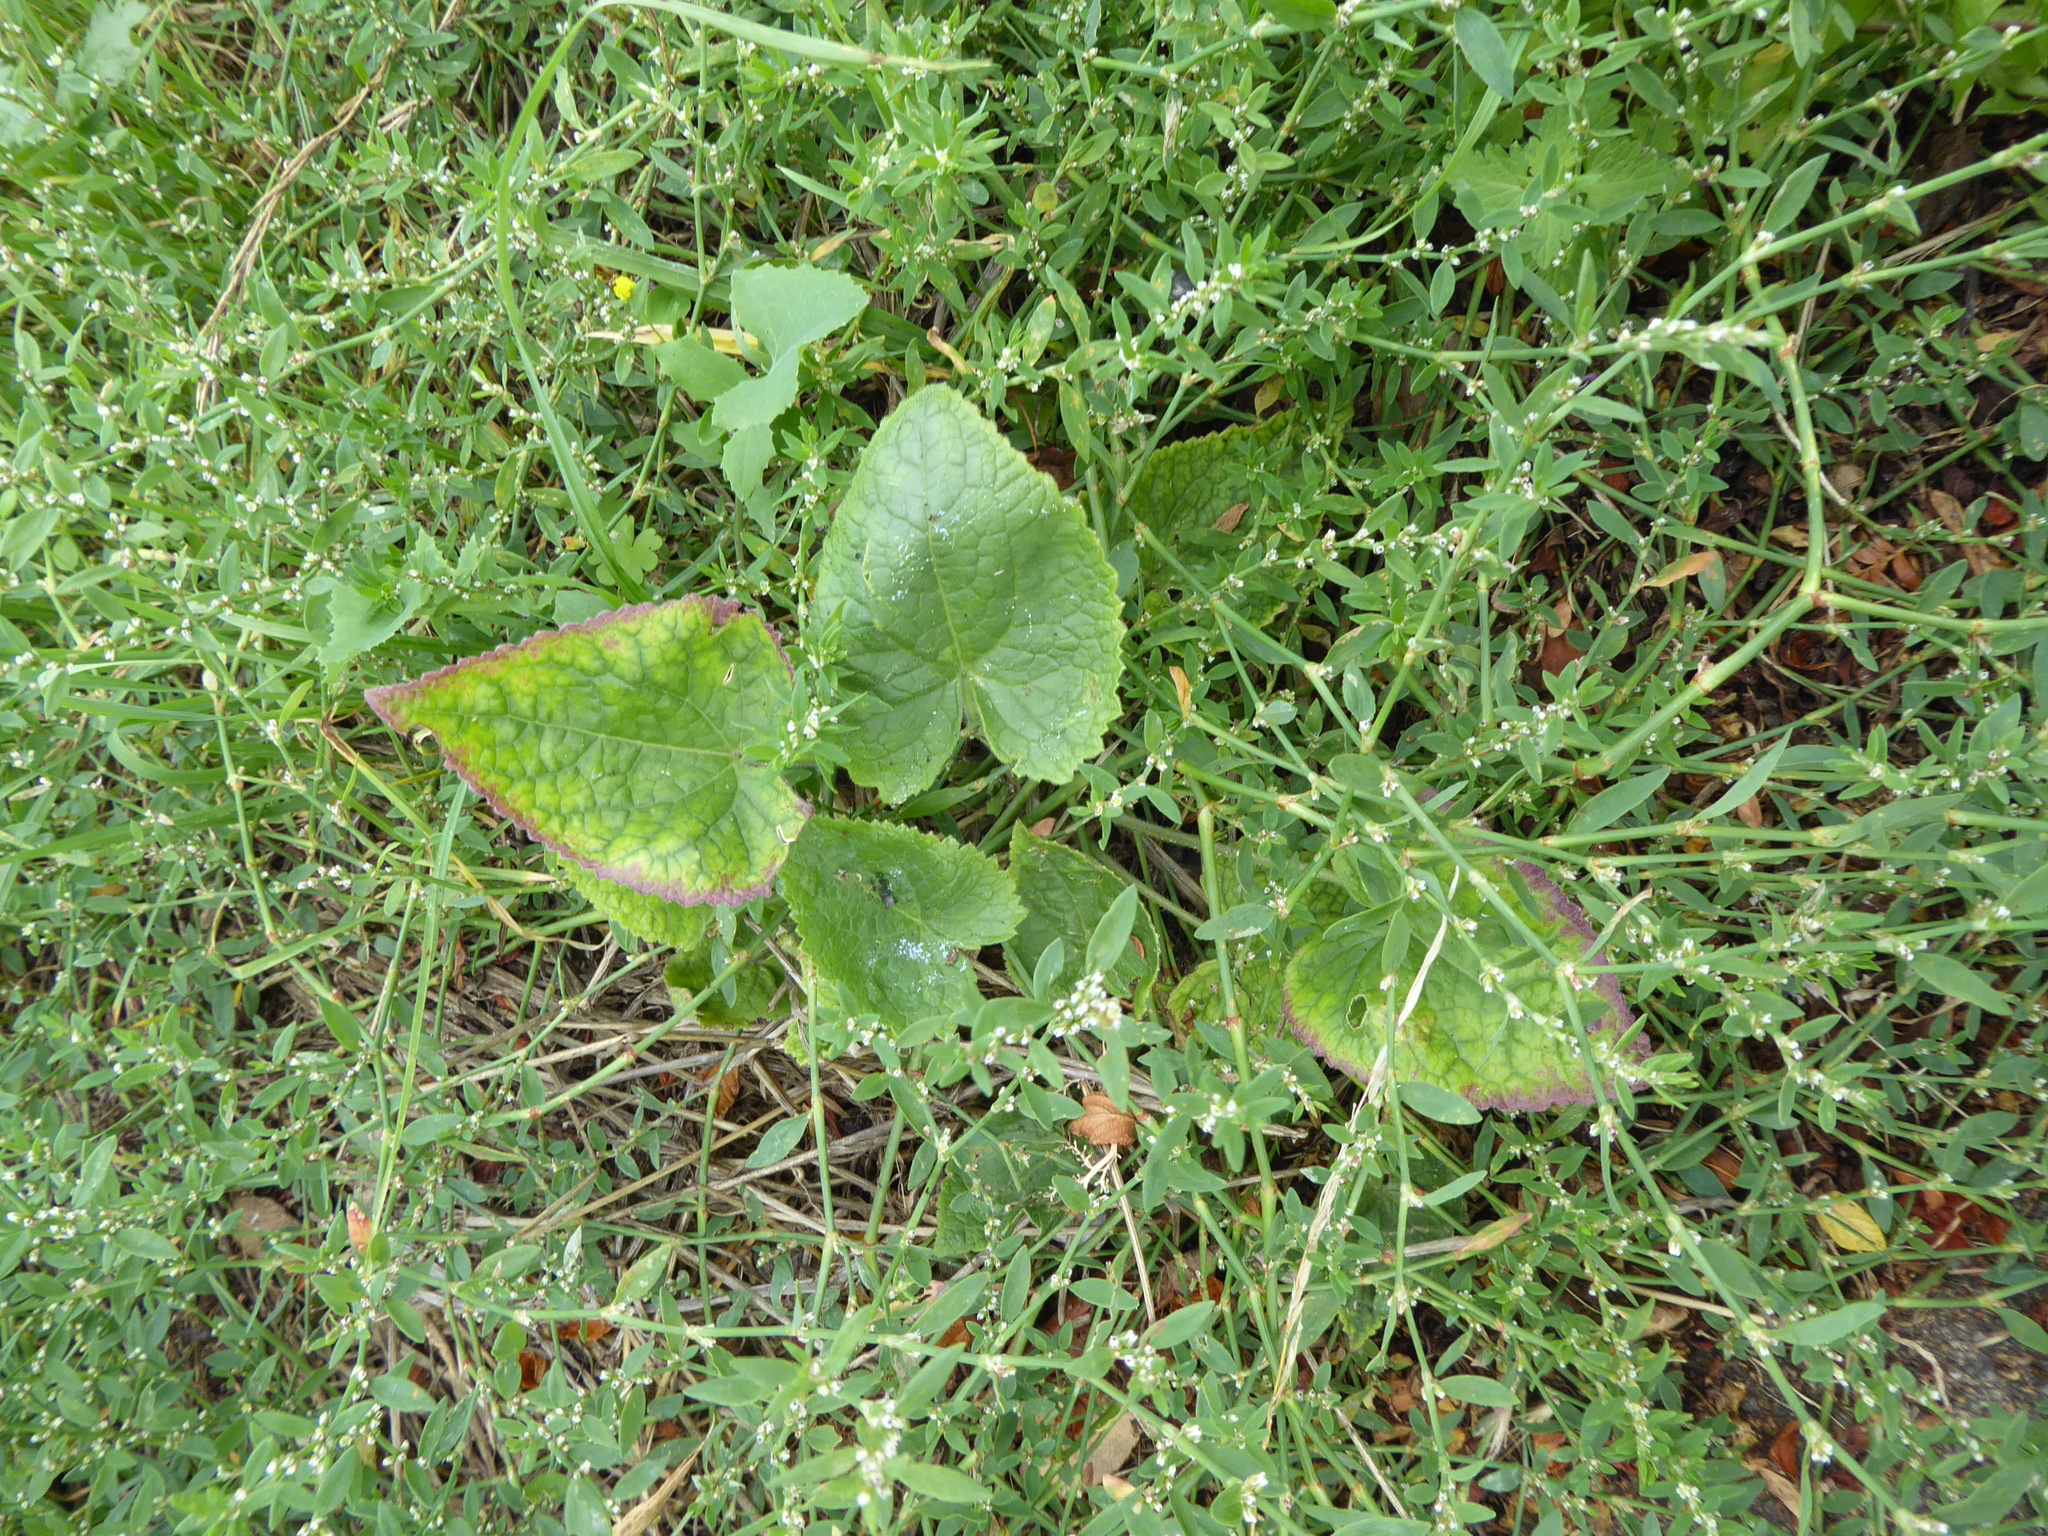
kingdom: Plantae
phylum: Tracheophyta
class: Magnoliopsida
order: Brassicales
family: Brassicaceae
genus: Lunaria
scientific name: Lunaria annua
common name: Honesty
